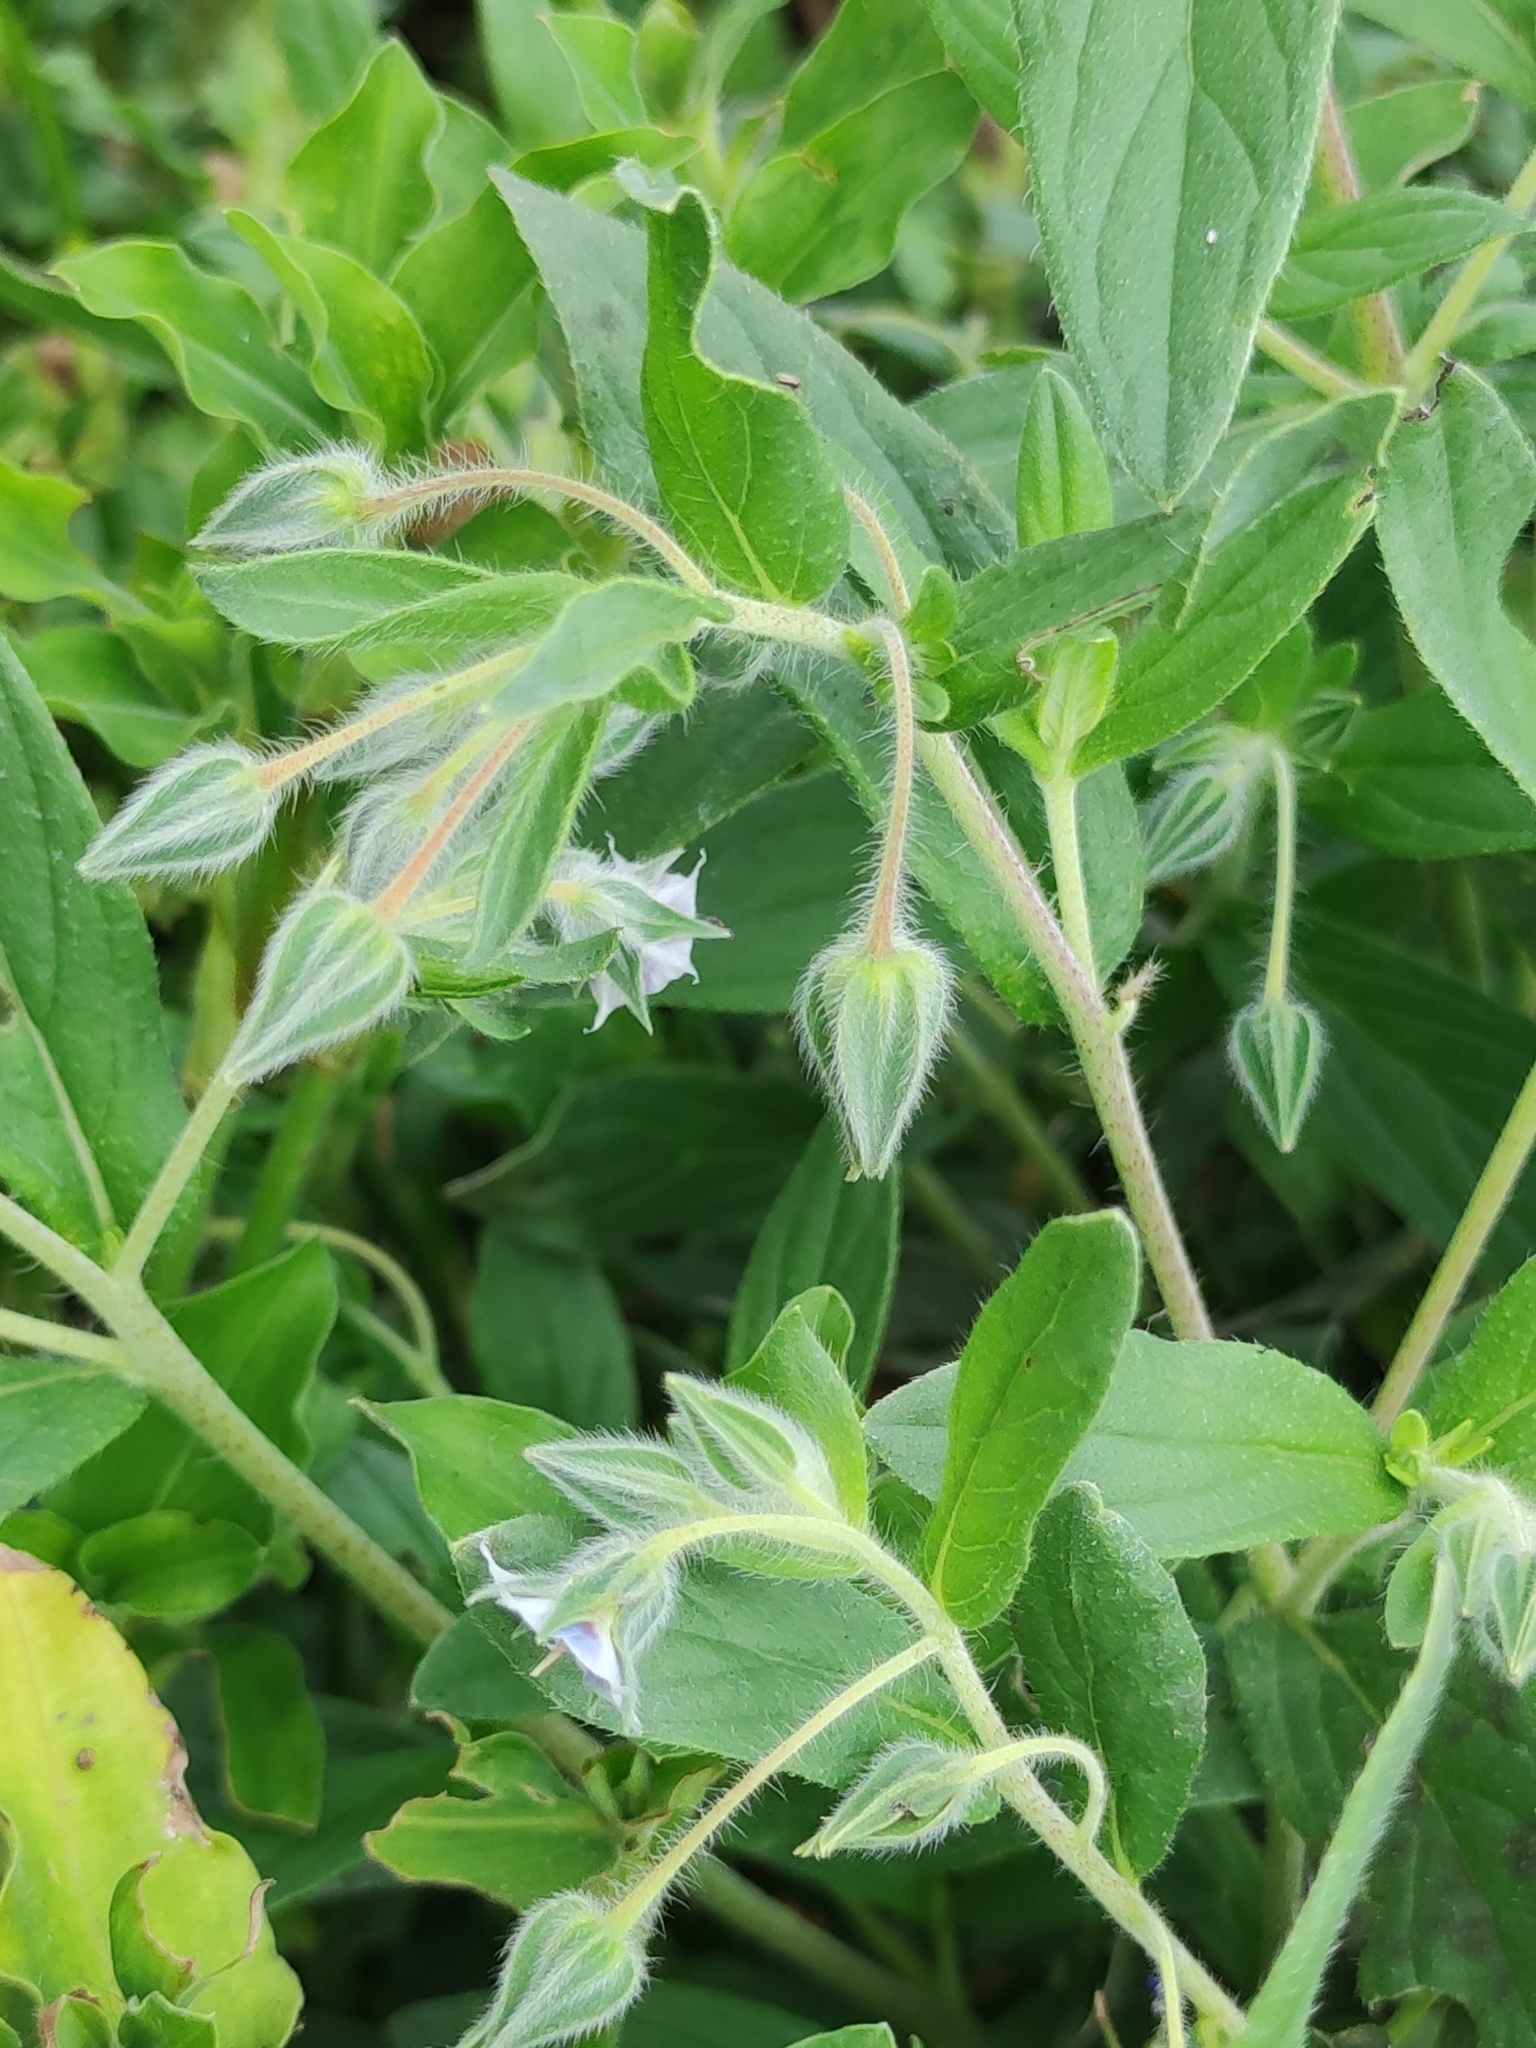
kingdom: Plantae
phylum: Tracheophyta
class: Magnoliopsida
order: Boraginales
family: Boraginaceae
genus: Trichodesma
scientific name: Trichodesma zeylanicum
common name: Camelbush
